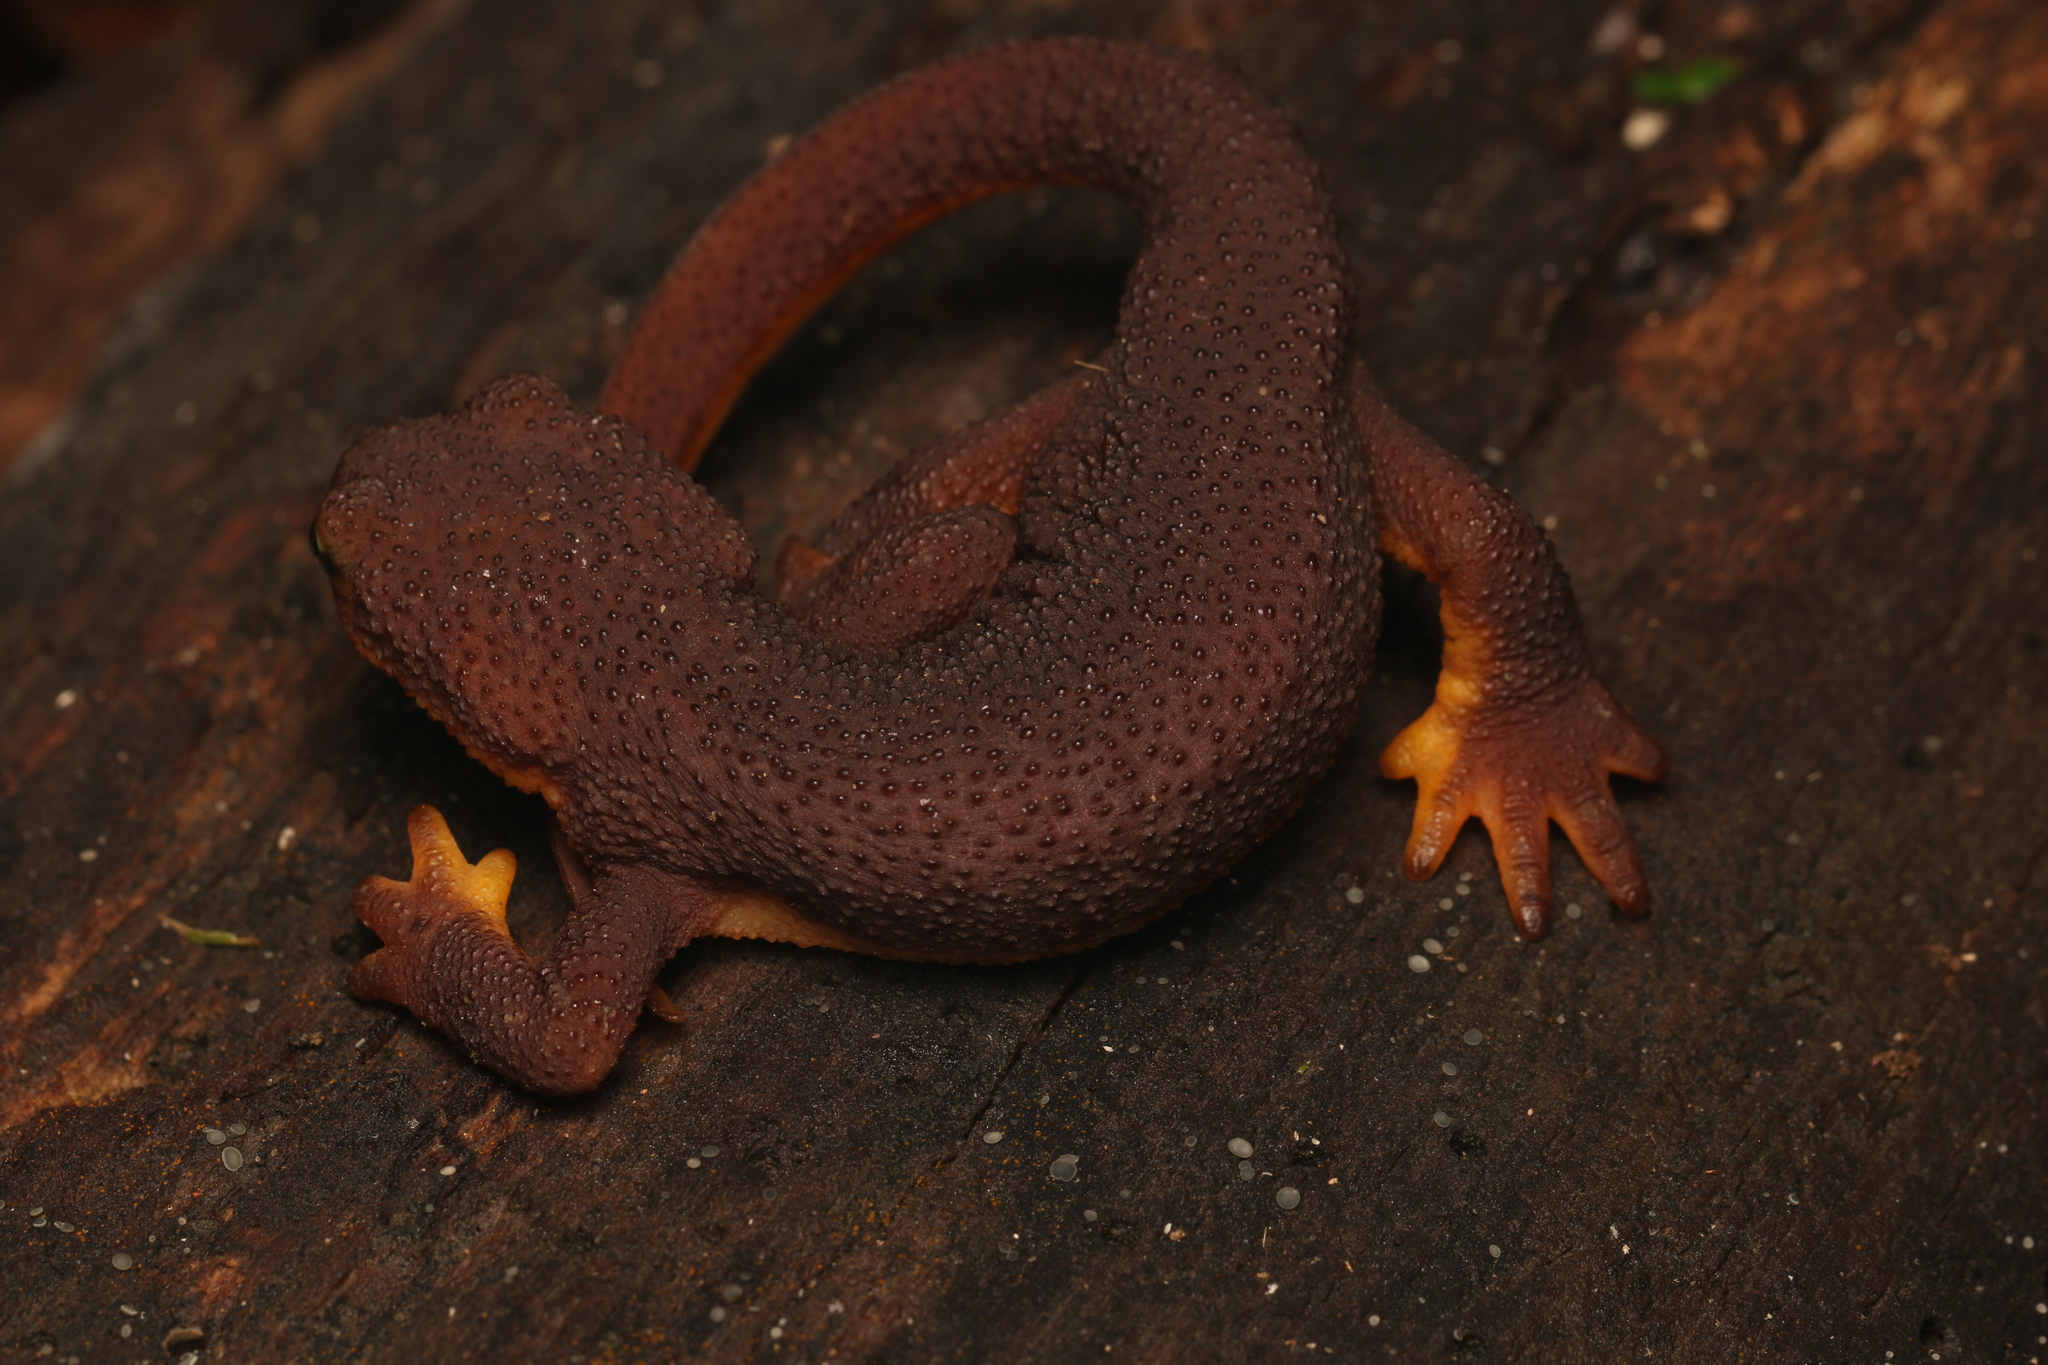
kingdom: Animalia
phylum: Chordata
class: Amphibia
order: Caudata
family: Salamandridae
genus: Taricha
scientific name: Taricha torosa
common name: California newt
